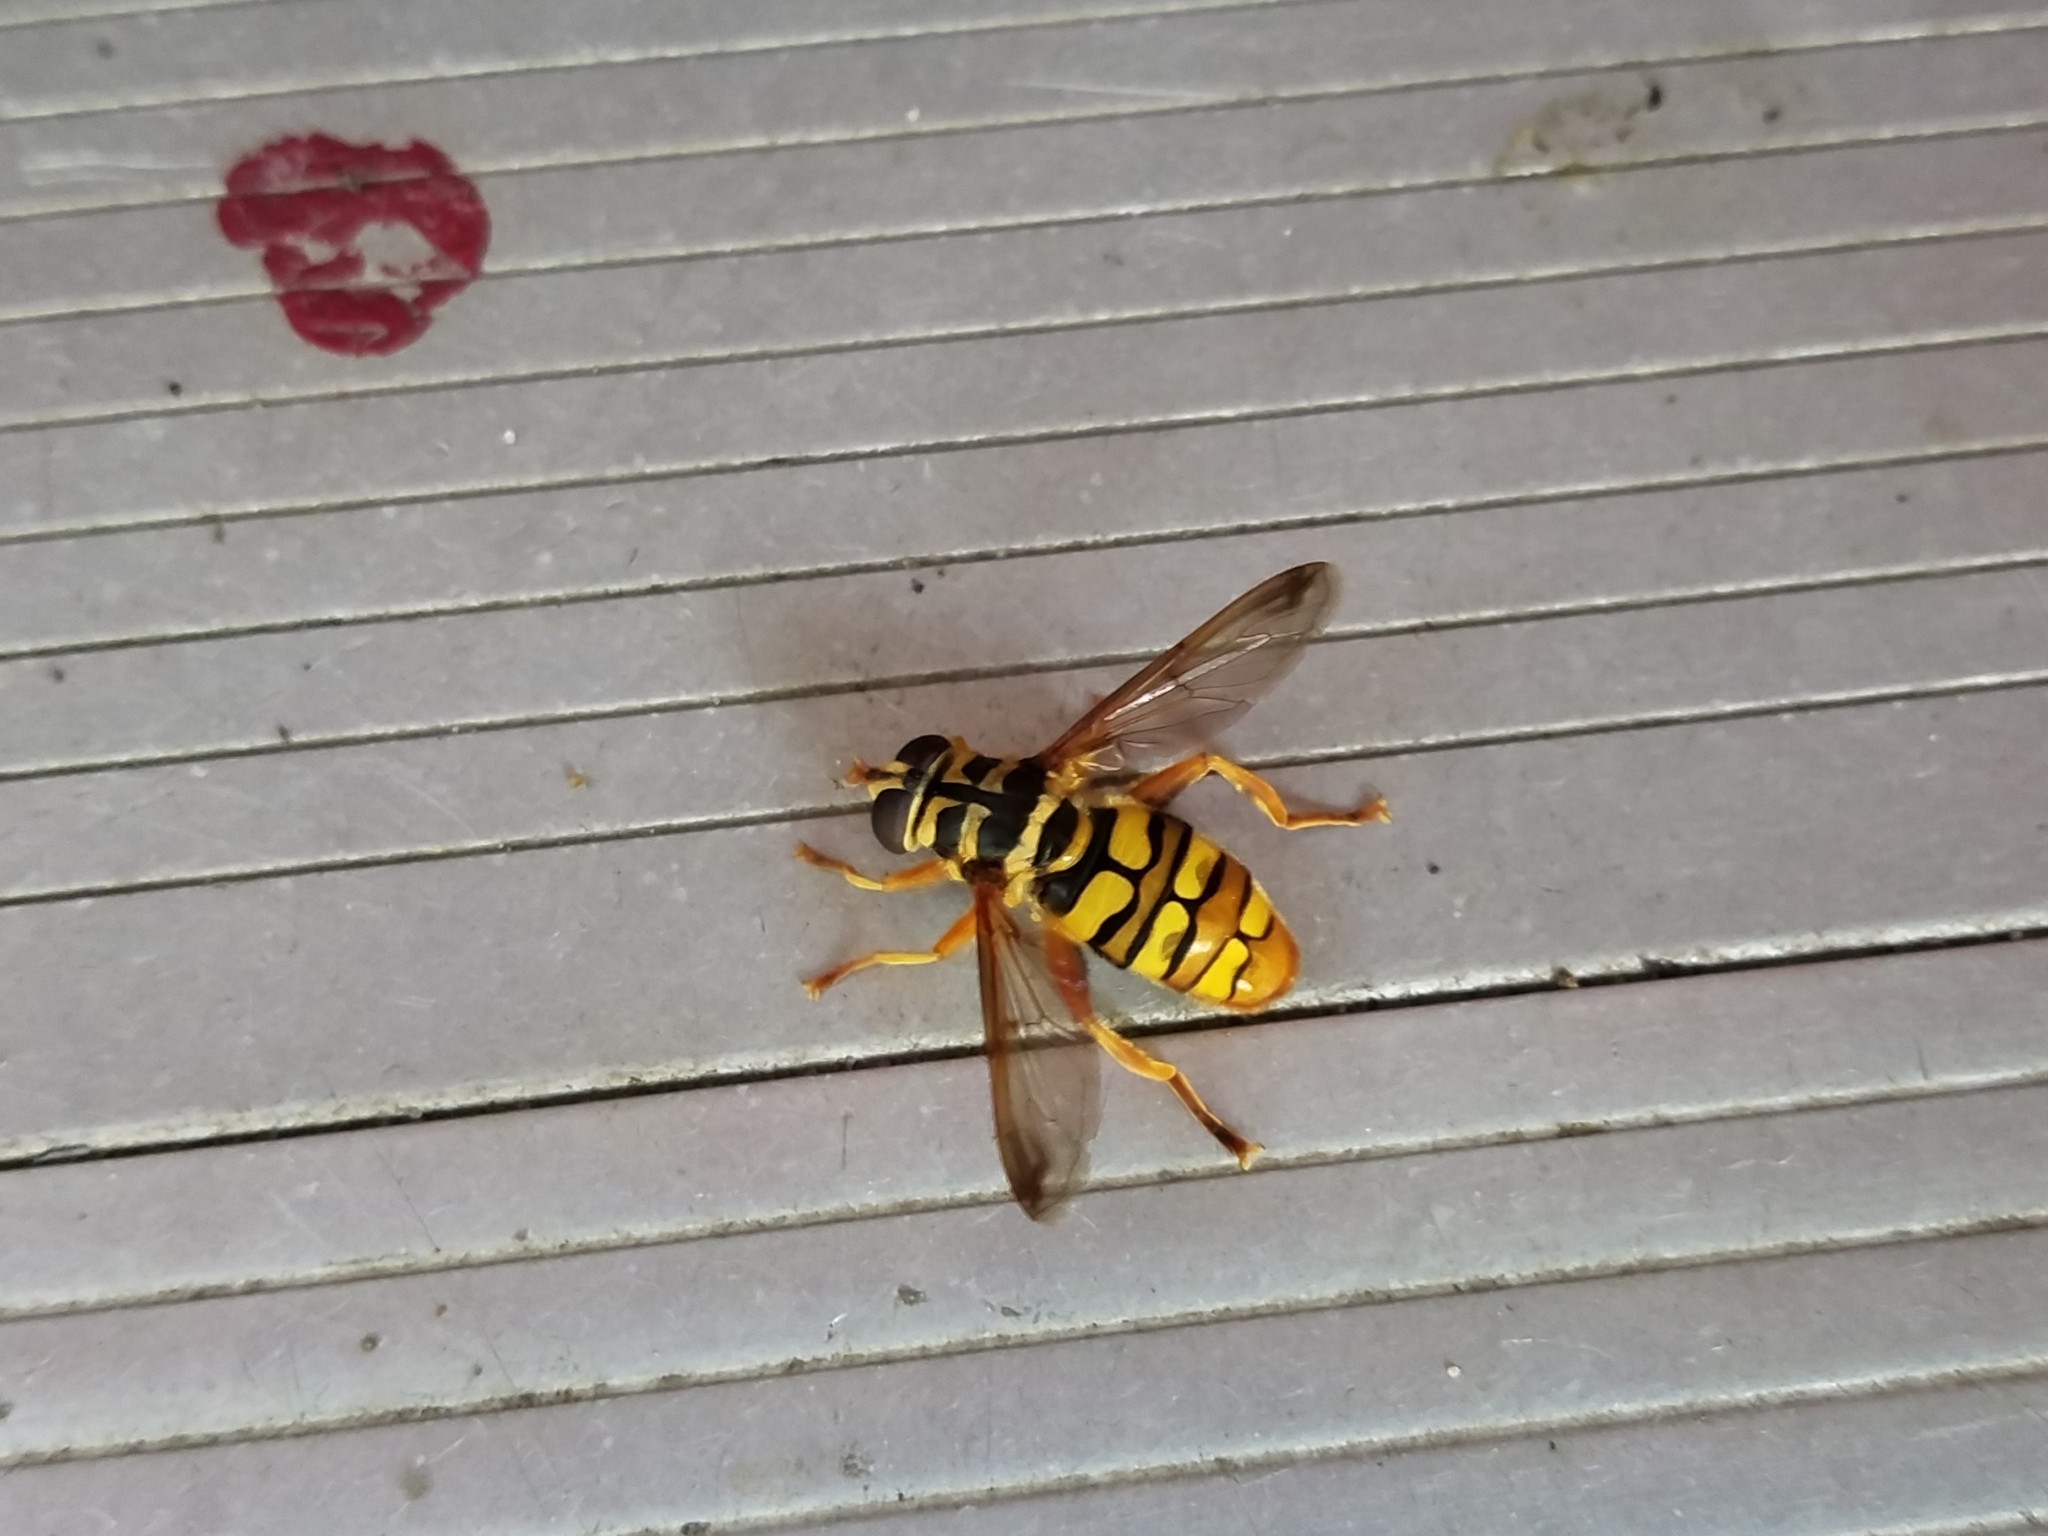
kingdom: Animalia
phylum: Arthropoda
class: Insecta
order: Diptera
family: Syrphidae
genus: Milesia
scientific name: Milesia virginiensis
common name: Virginia giant
